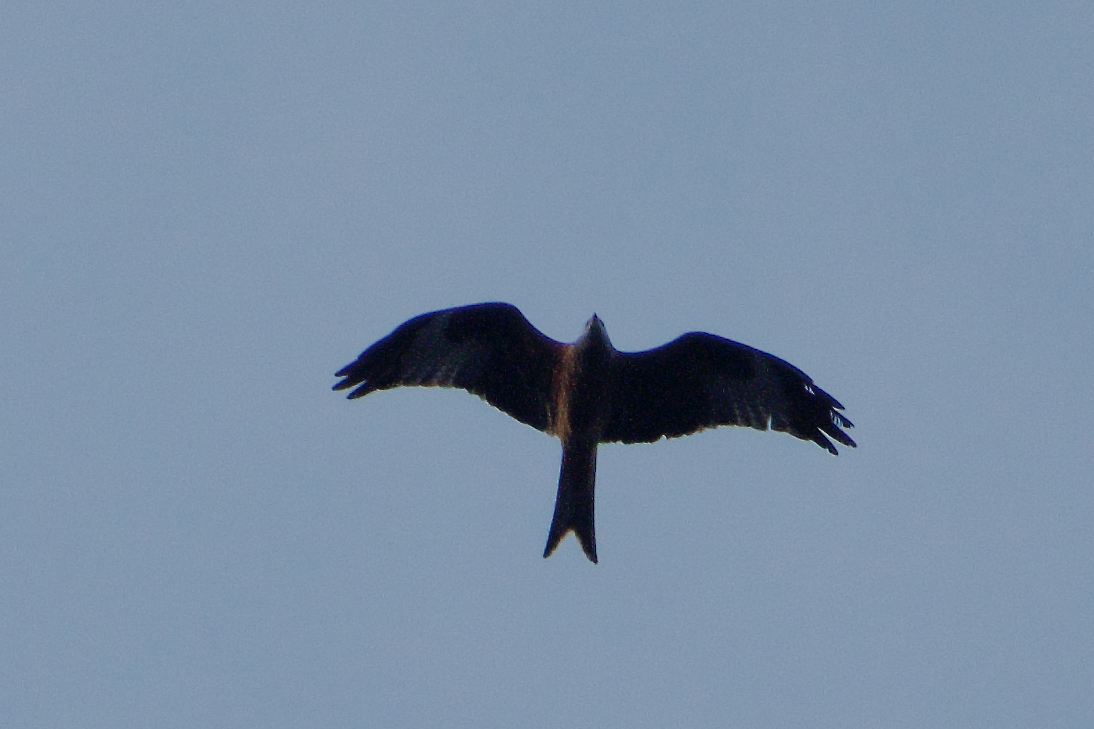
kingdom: Animalia
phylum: Chordata
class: Aves
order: Accipitriformes
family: Accipitridae
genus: Milvus
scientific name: Milvus milvus
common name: Red kite
